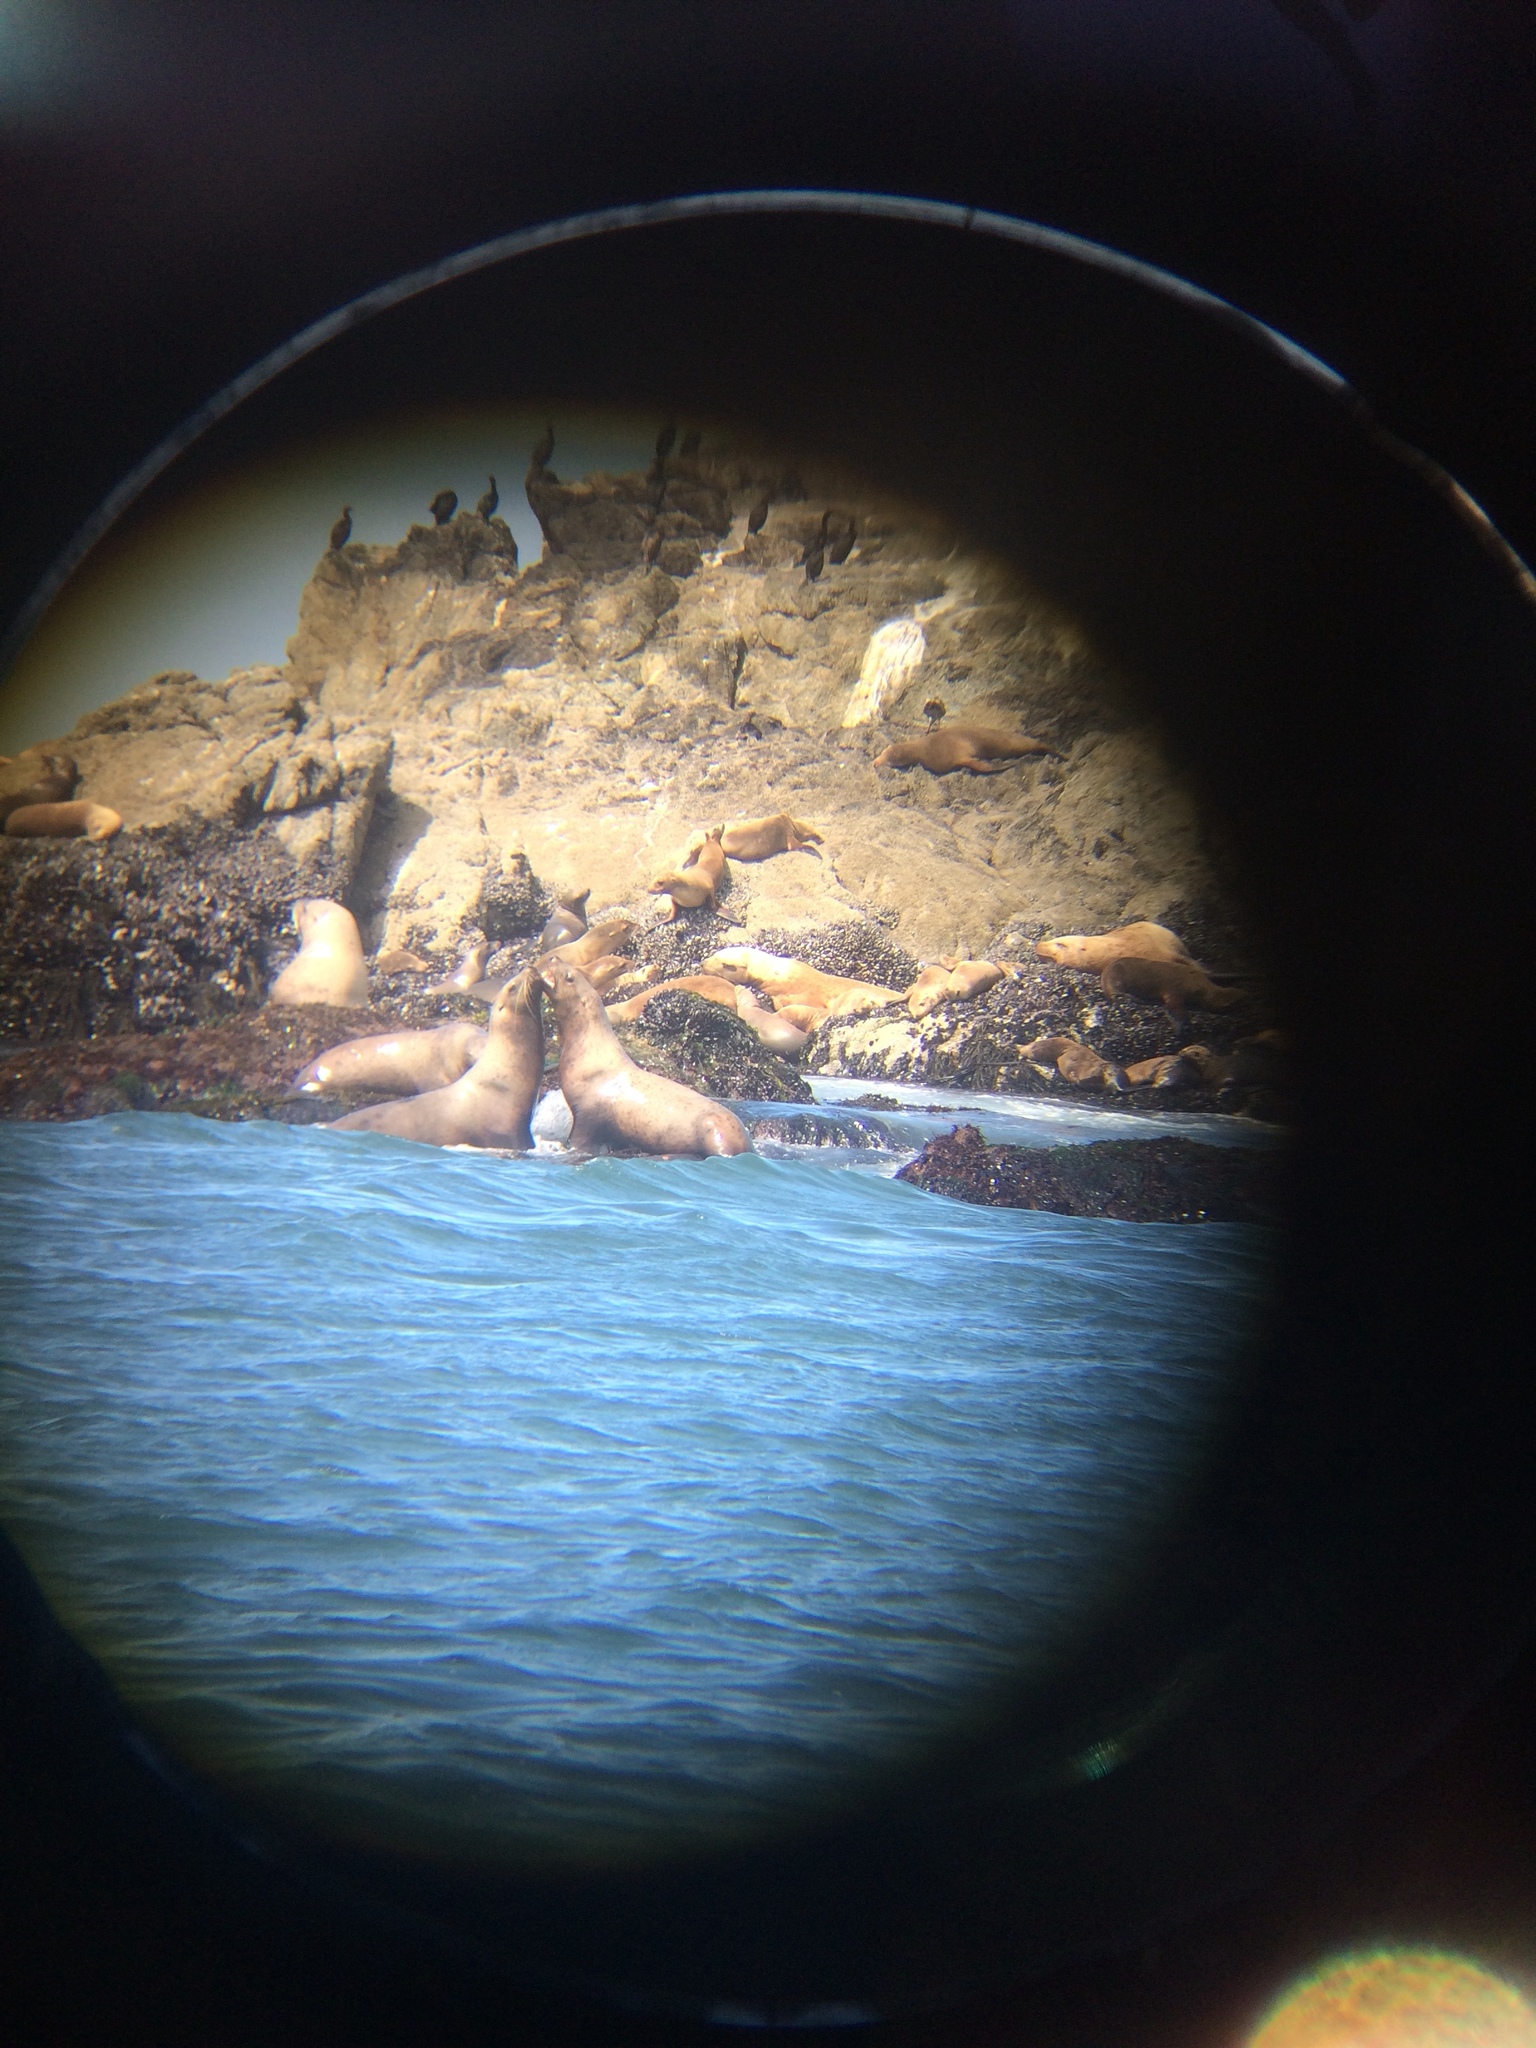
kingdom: Animalia
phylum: Chordata
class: Mammalia
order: Carnivora
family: Otariidae
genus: Eumetopias
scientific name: Eumetopias jubatus
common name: Steller sea lion
